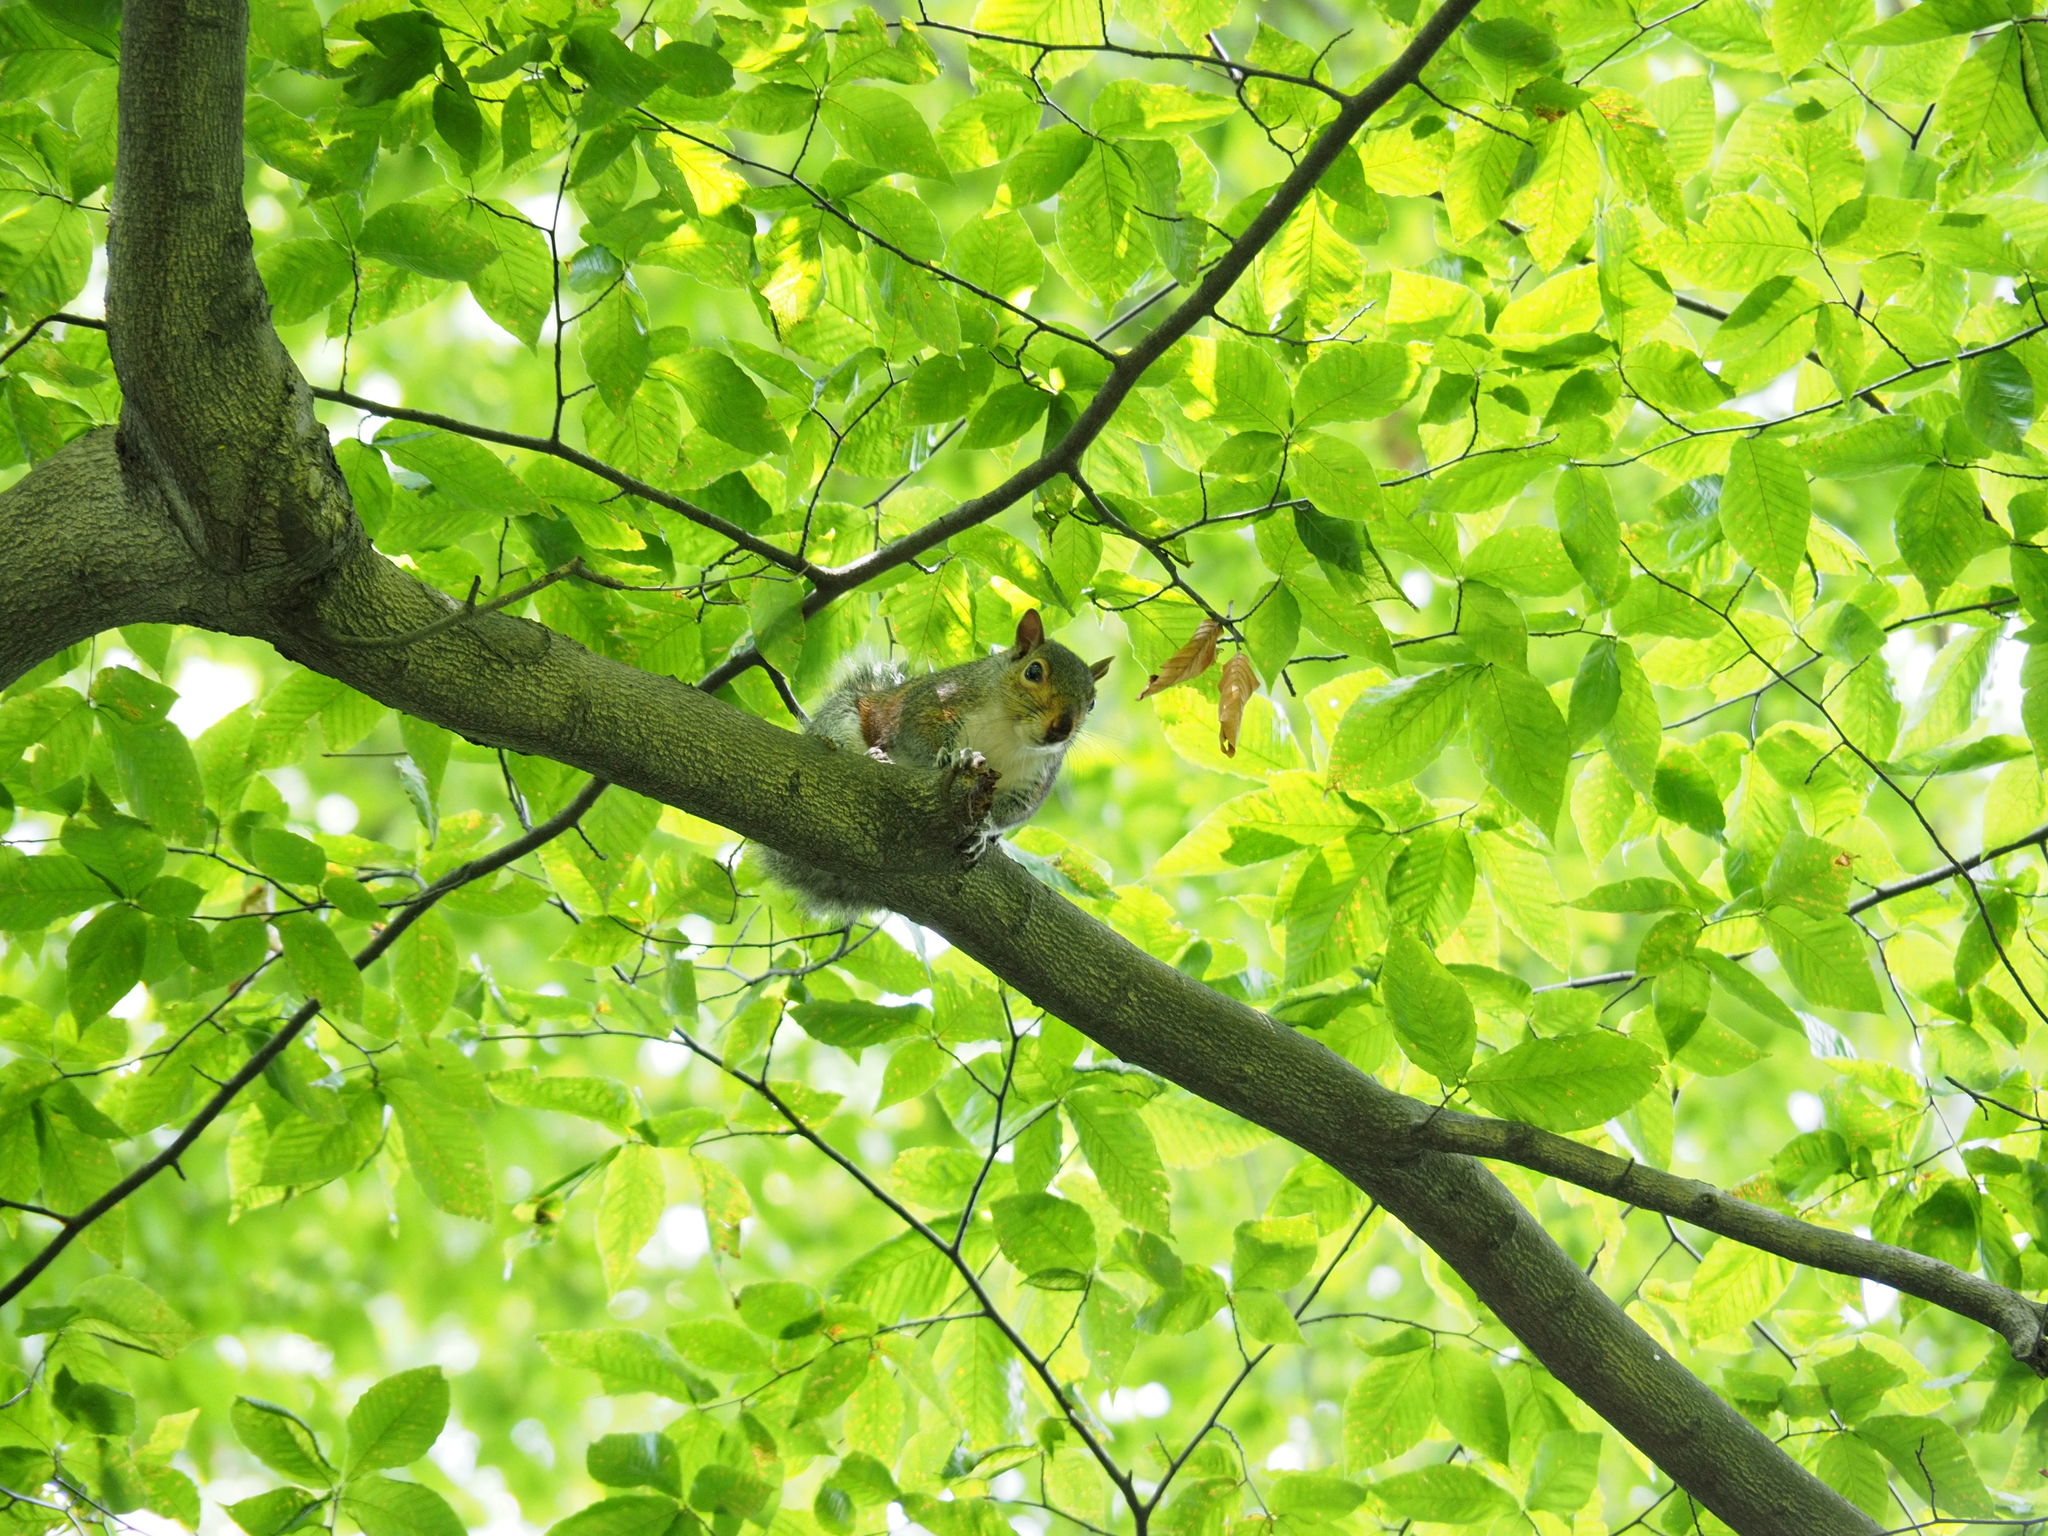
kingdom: Animalia
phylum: Chordata
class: Mammalia
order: Rodentia
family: Sciuridae
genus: Sciurus
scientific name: Sciurus carolinensis
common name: Eastern gray squirrel
